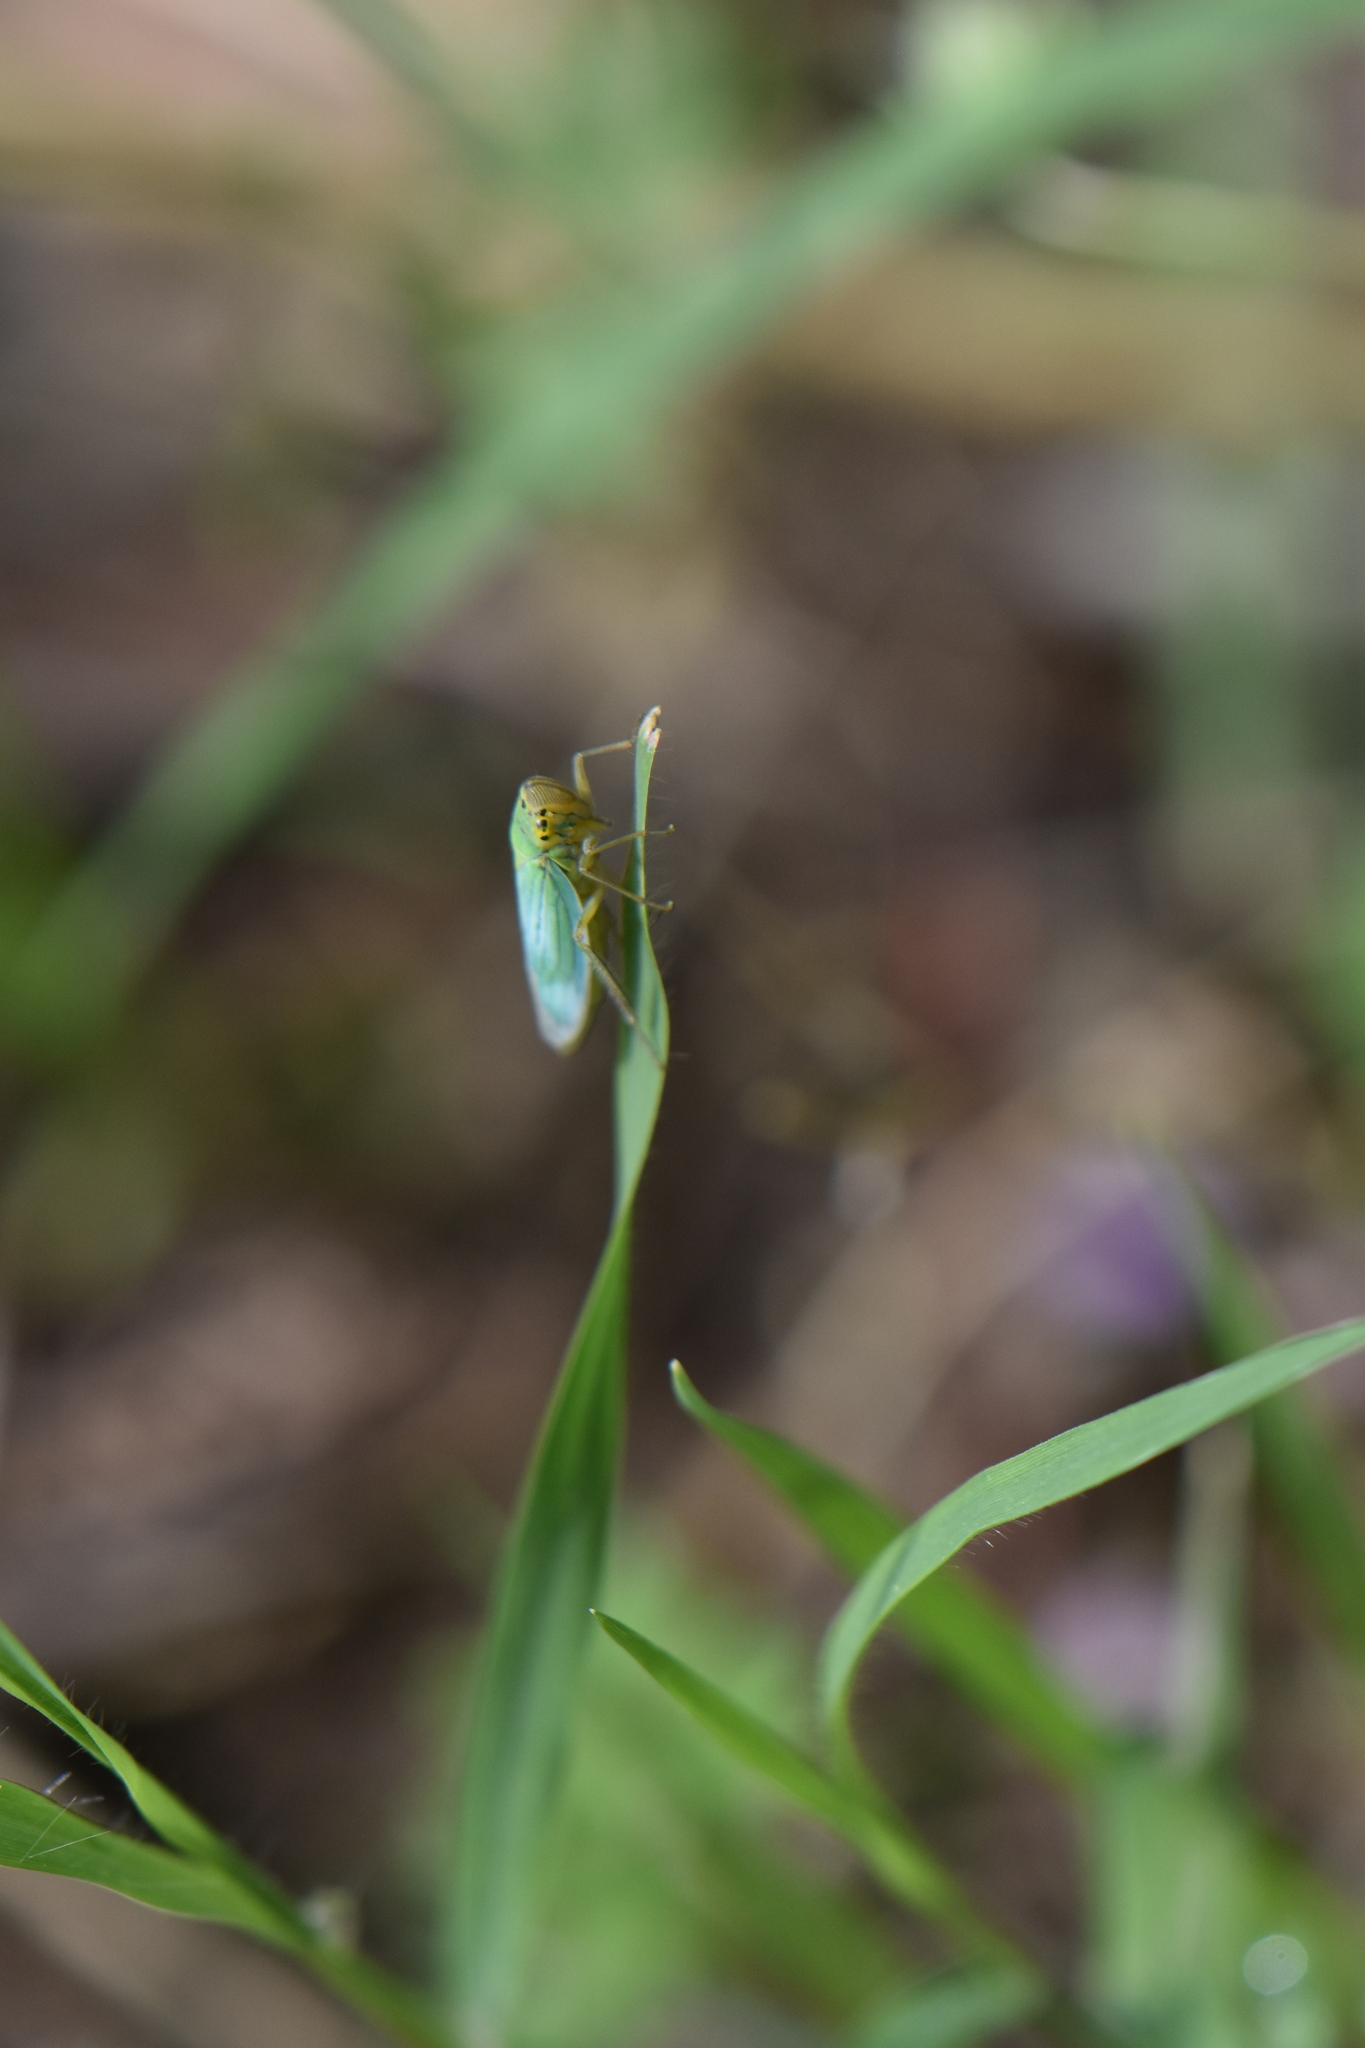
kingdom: Animalia
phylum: Arthropoda
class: Insecta
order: Hemiptera
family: Cicadellidae
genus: Cicadella
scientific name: Cicadella viridis
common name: Leafhopper
